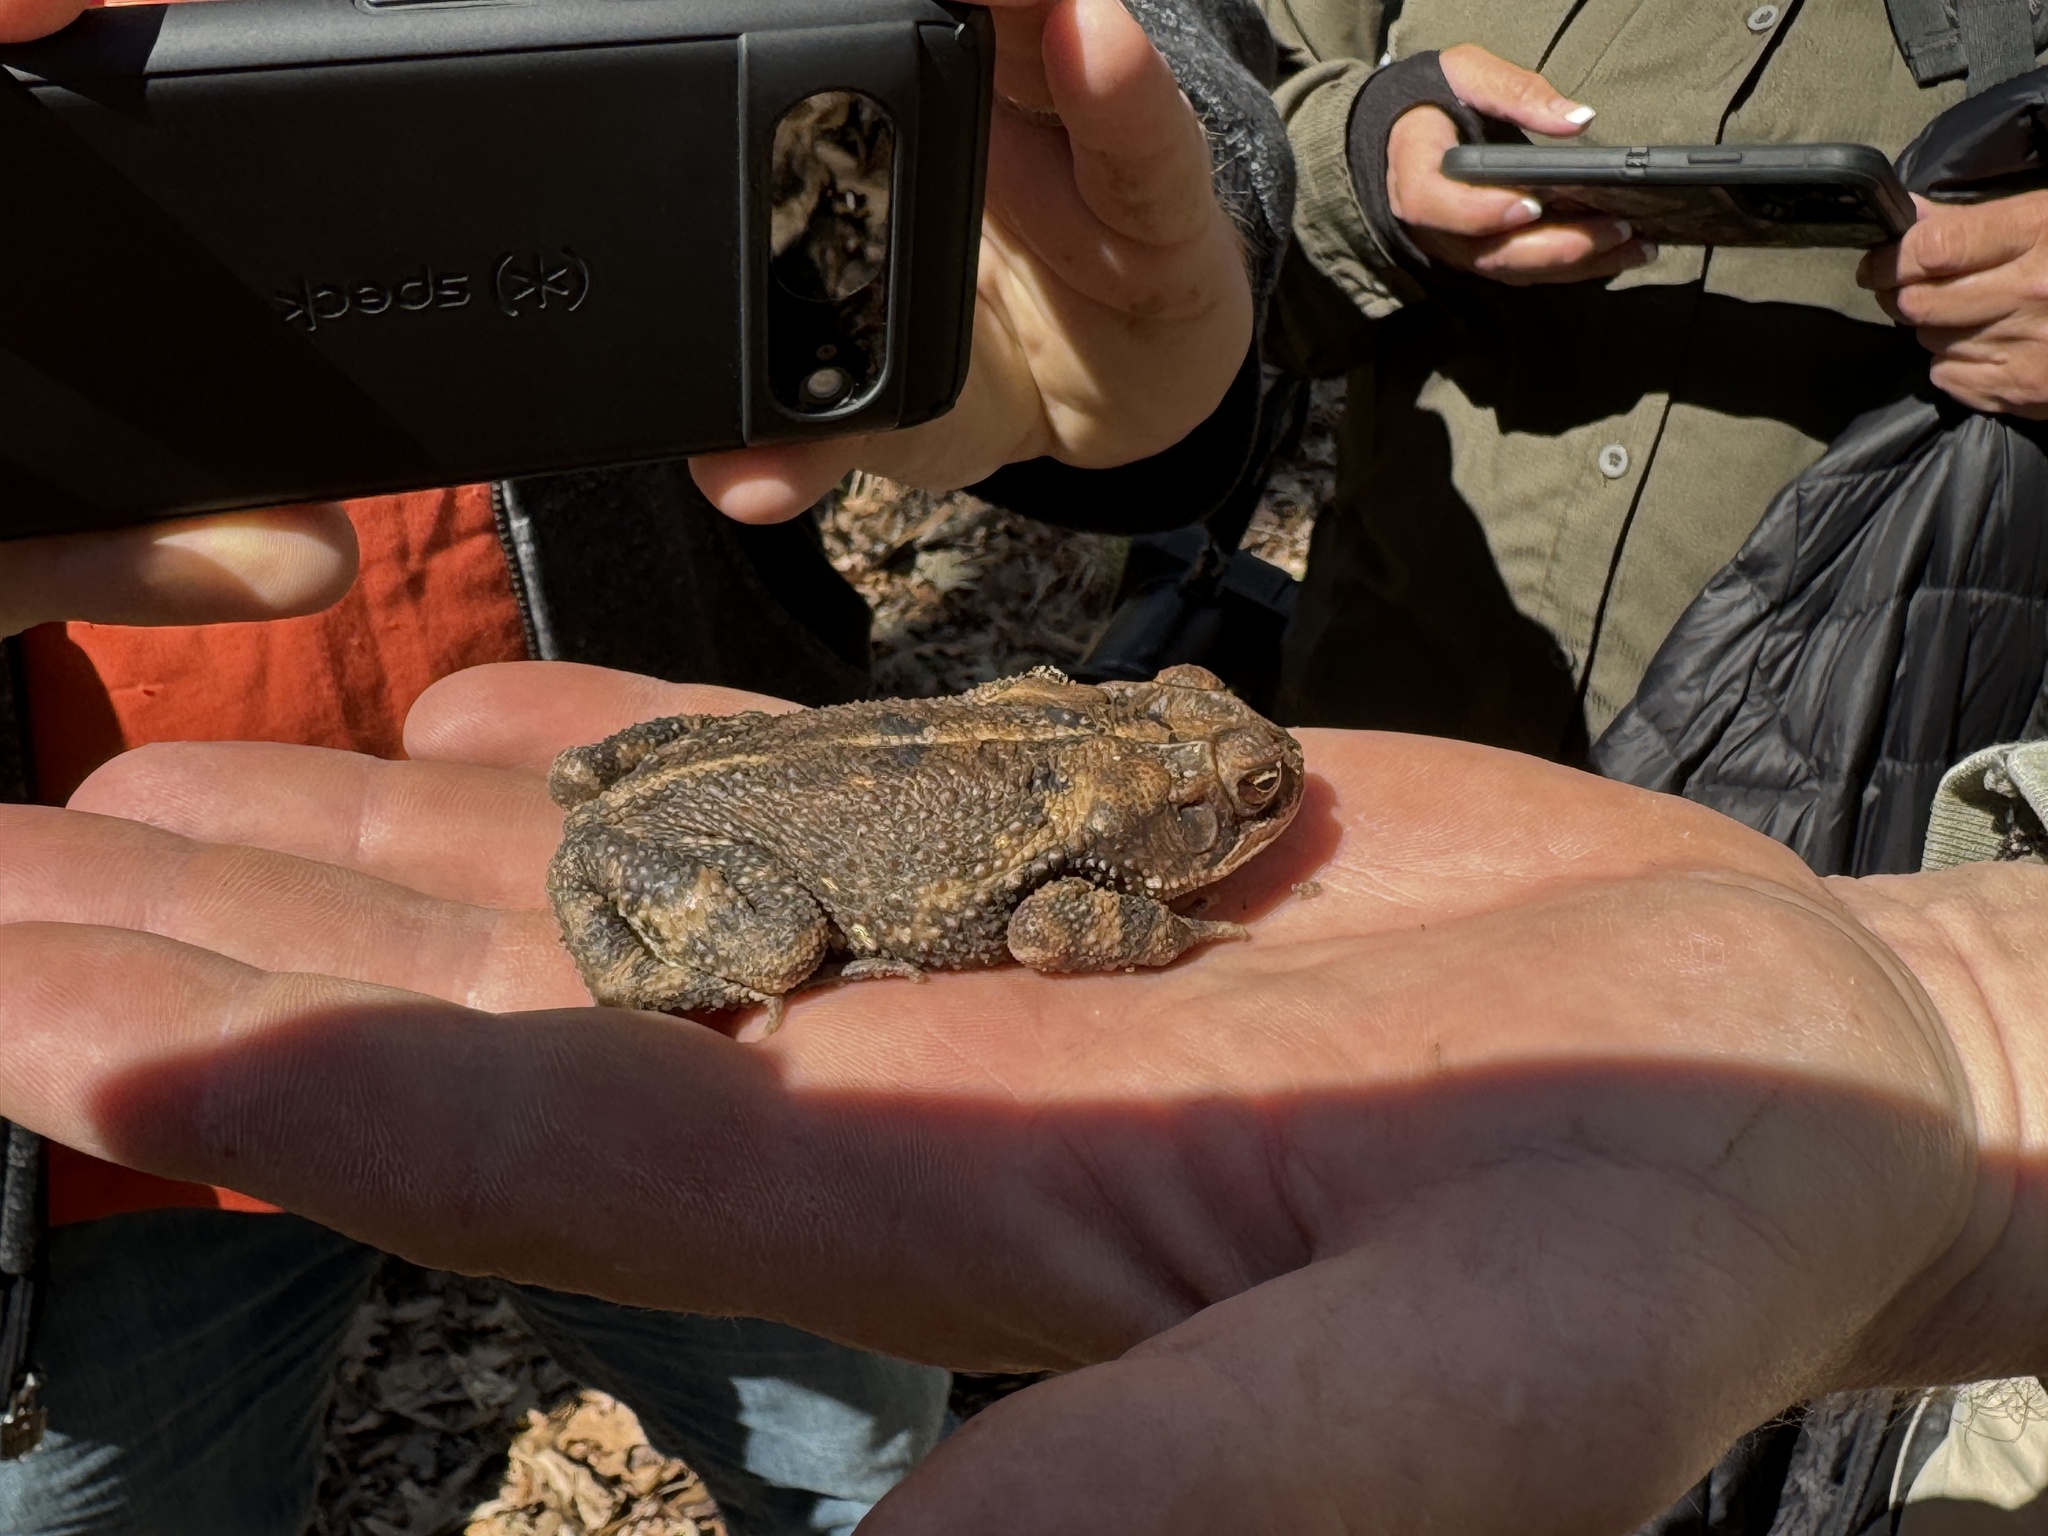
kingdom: Animalia
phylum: Chordata
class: Amphibia
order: Anura
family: Bufonidae
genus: Incilius
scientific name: Incilius nebulifer
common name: Gulf coast toad
